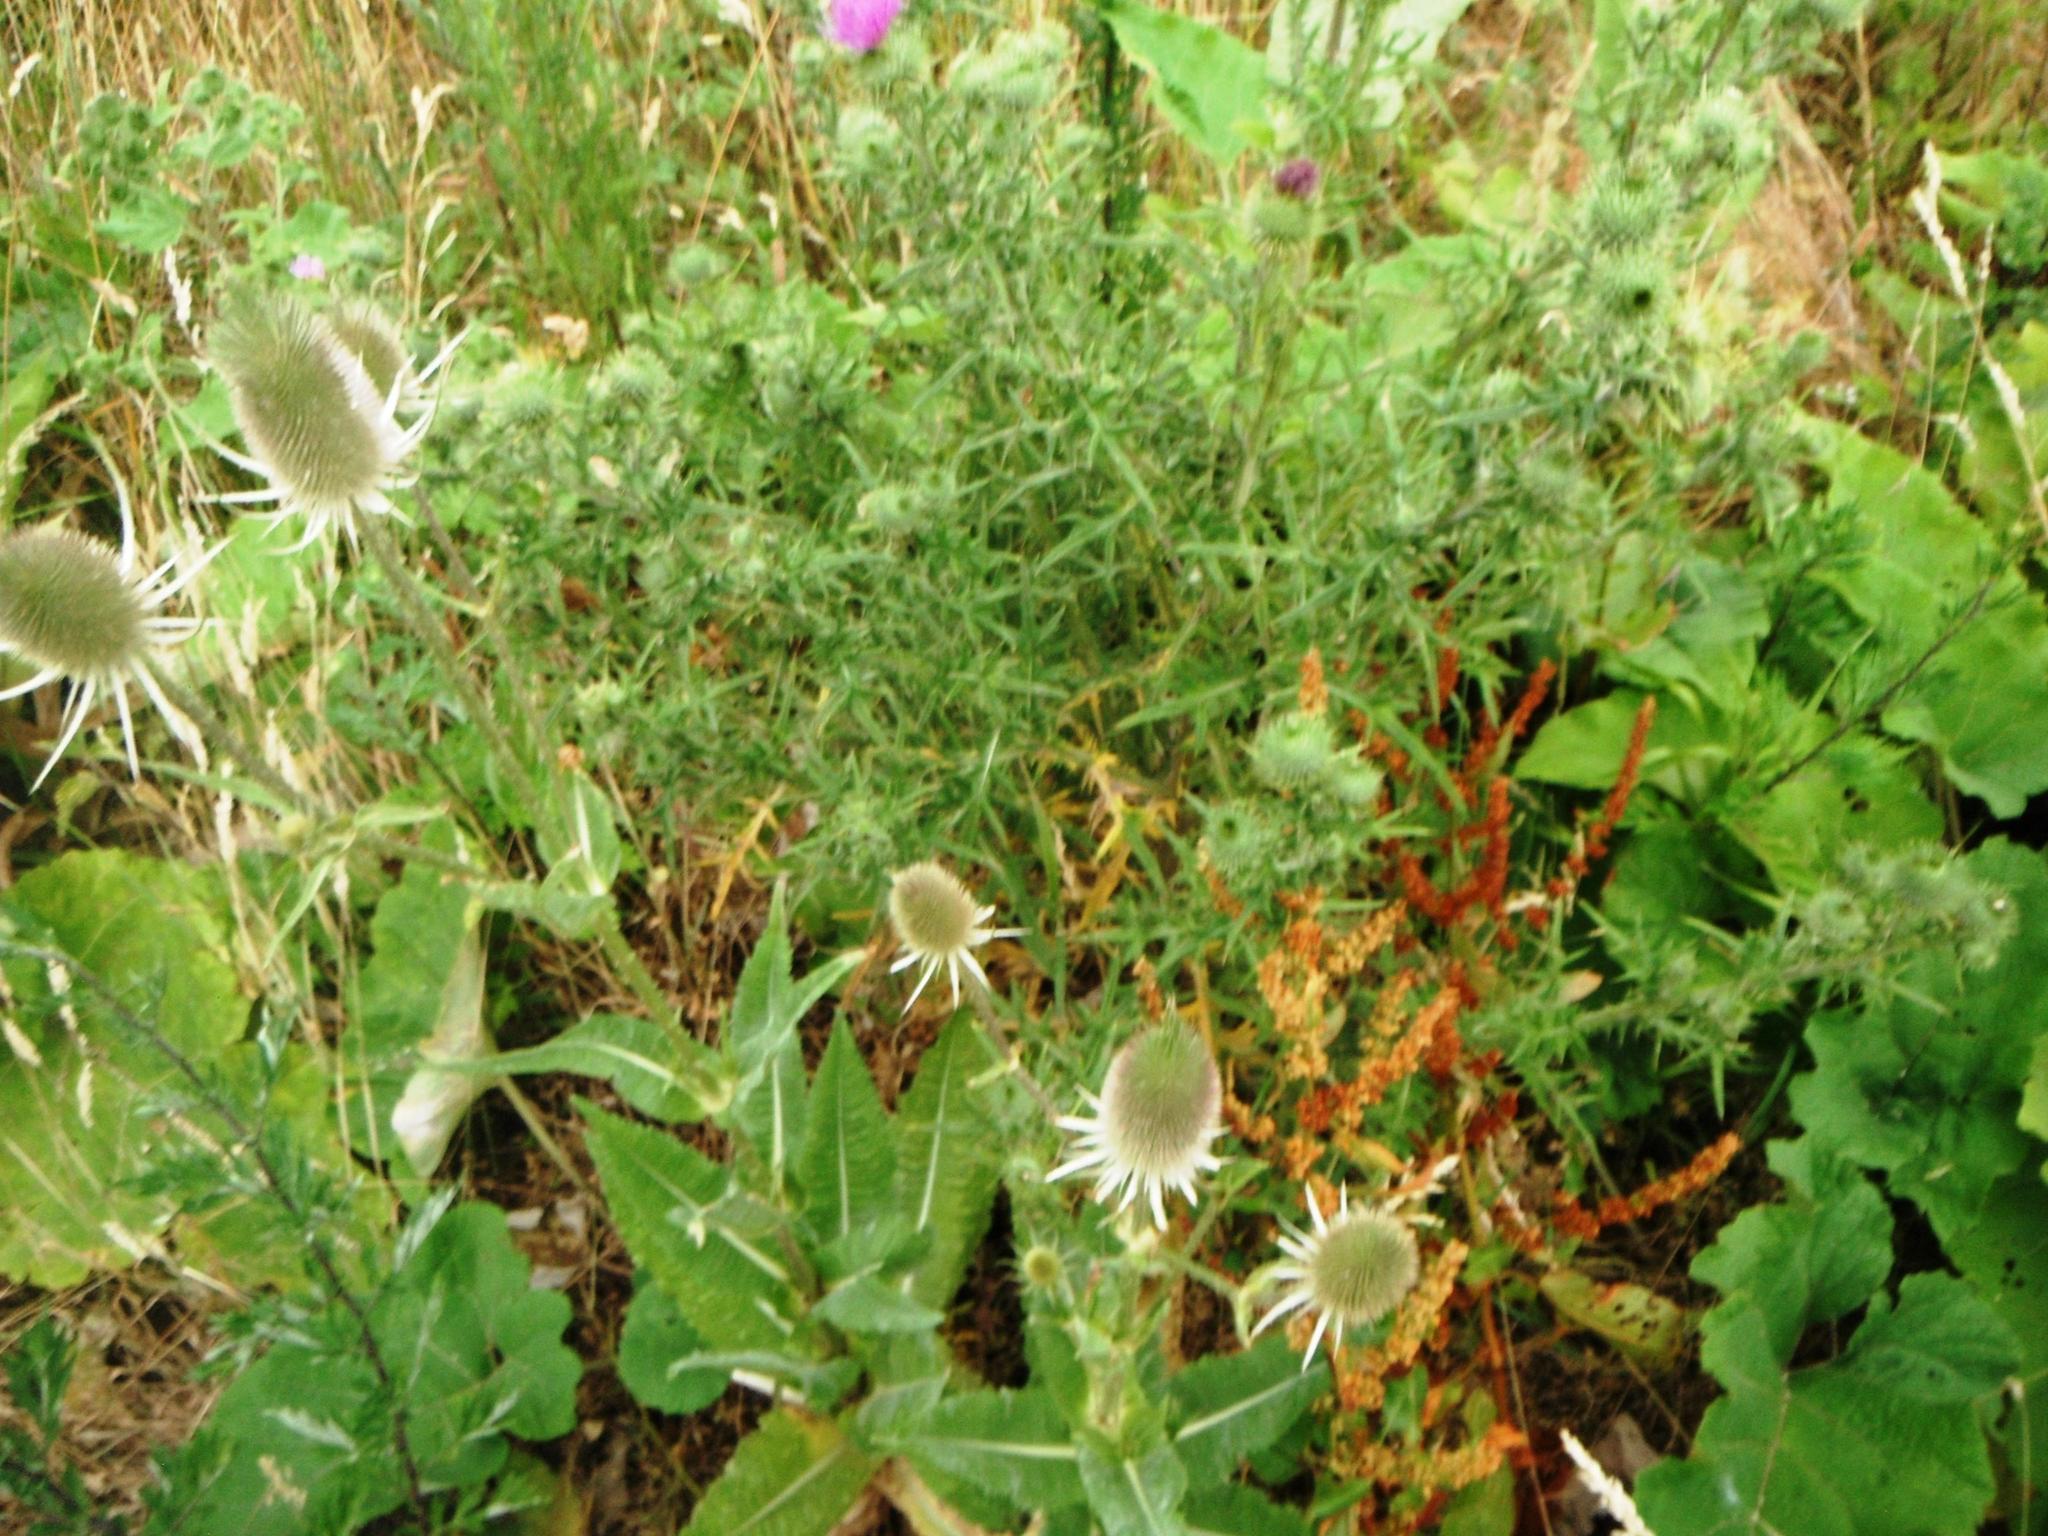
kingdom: Plantae
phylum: Tracheophyta
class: Magnoliopsida
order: Dipsacales
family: Caprifoliaceae
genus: Dipsacus
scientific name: Dipsacus fullonum
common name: Teasel
